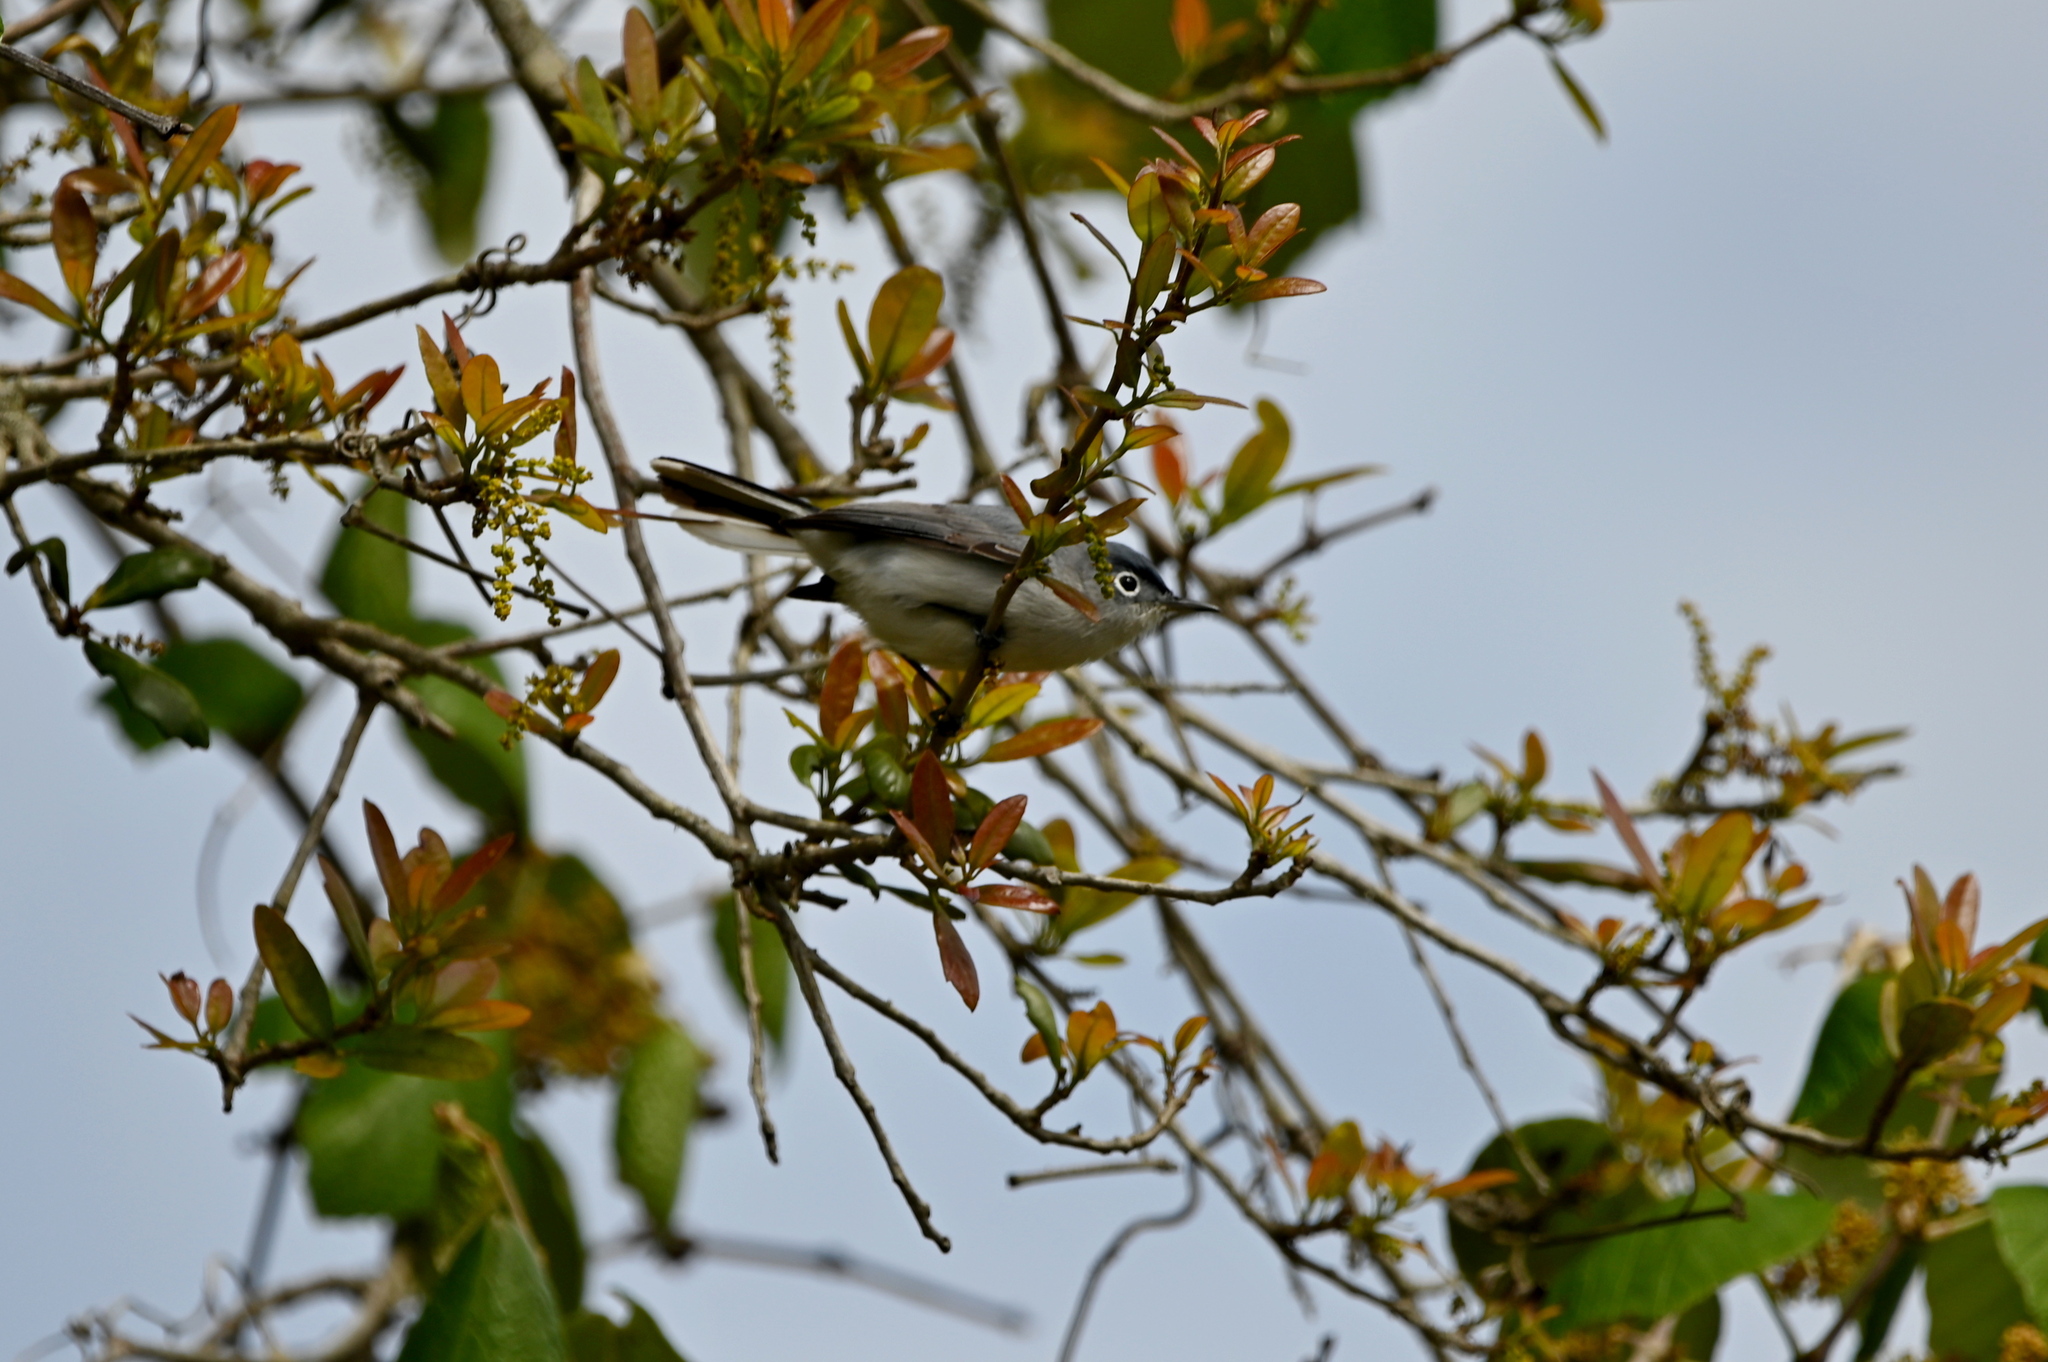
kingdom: Animalia
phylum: Chordata
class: Aves
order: Passeriformes
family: Polioptilidae
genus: Polioptila
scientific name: Polioptila caerulea
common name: Blue-gray gnatcatcher
